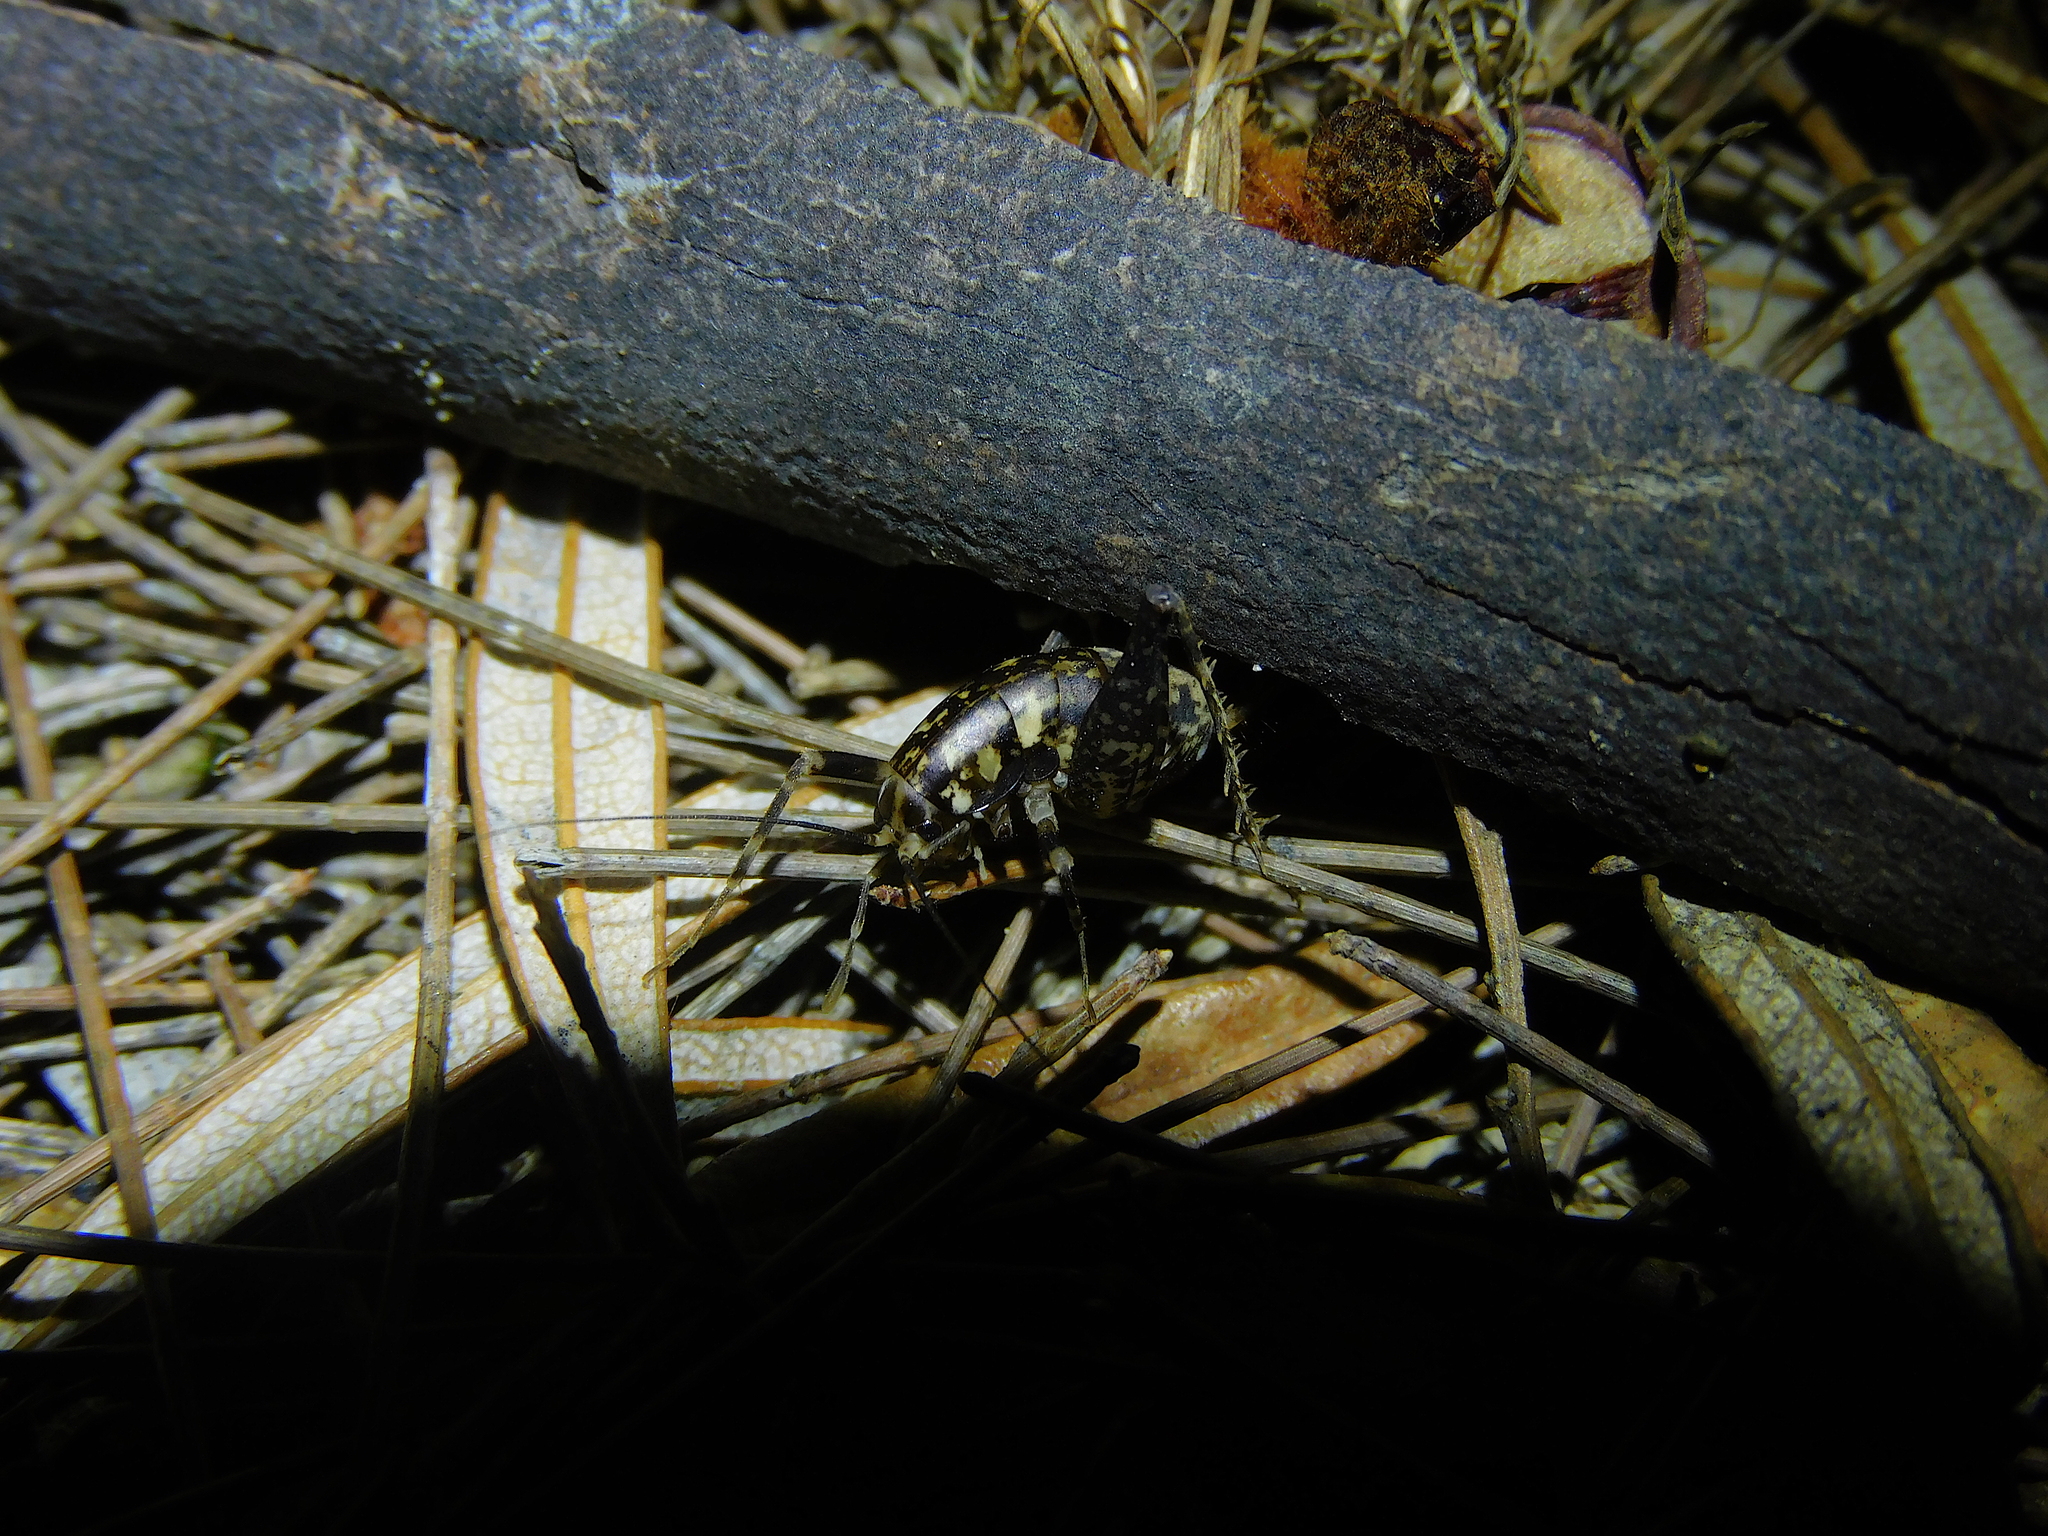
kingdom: Animalia
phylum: Arthropoda
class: Insecta
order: Orthoptera
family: Rhaphidophoridae
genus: Parvotettix
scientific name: Parvotettix domesticus
